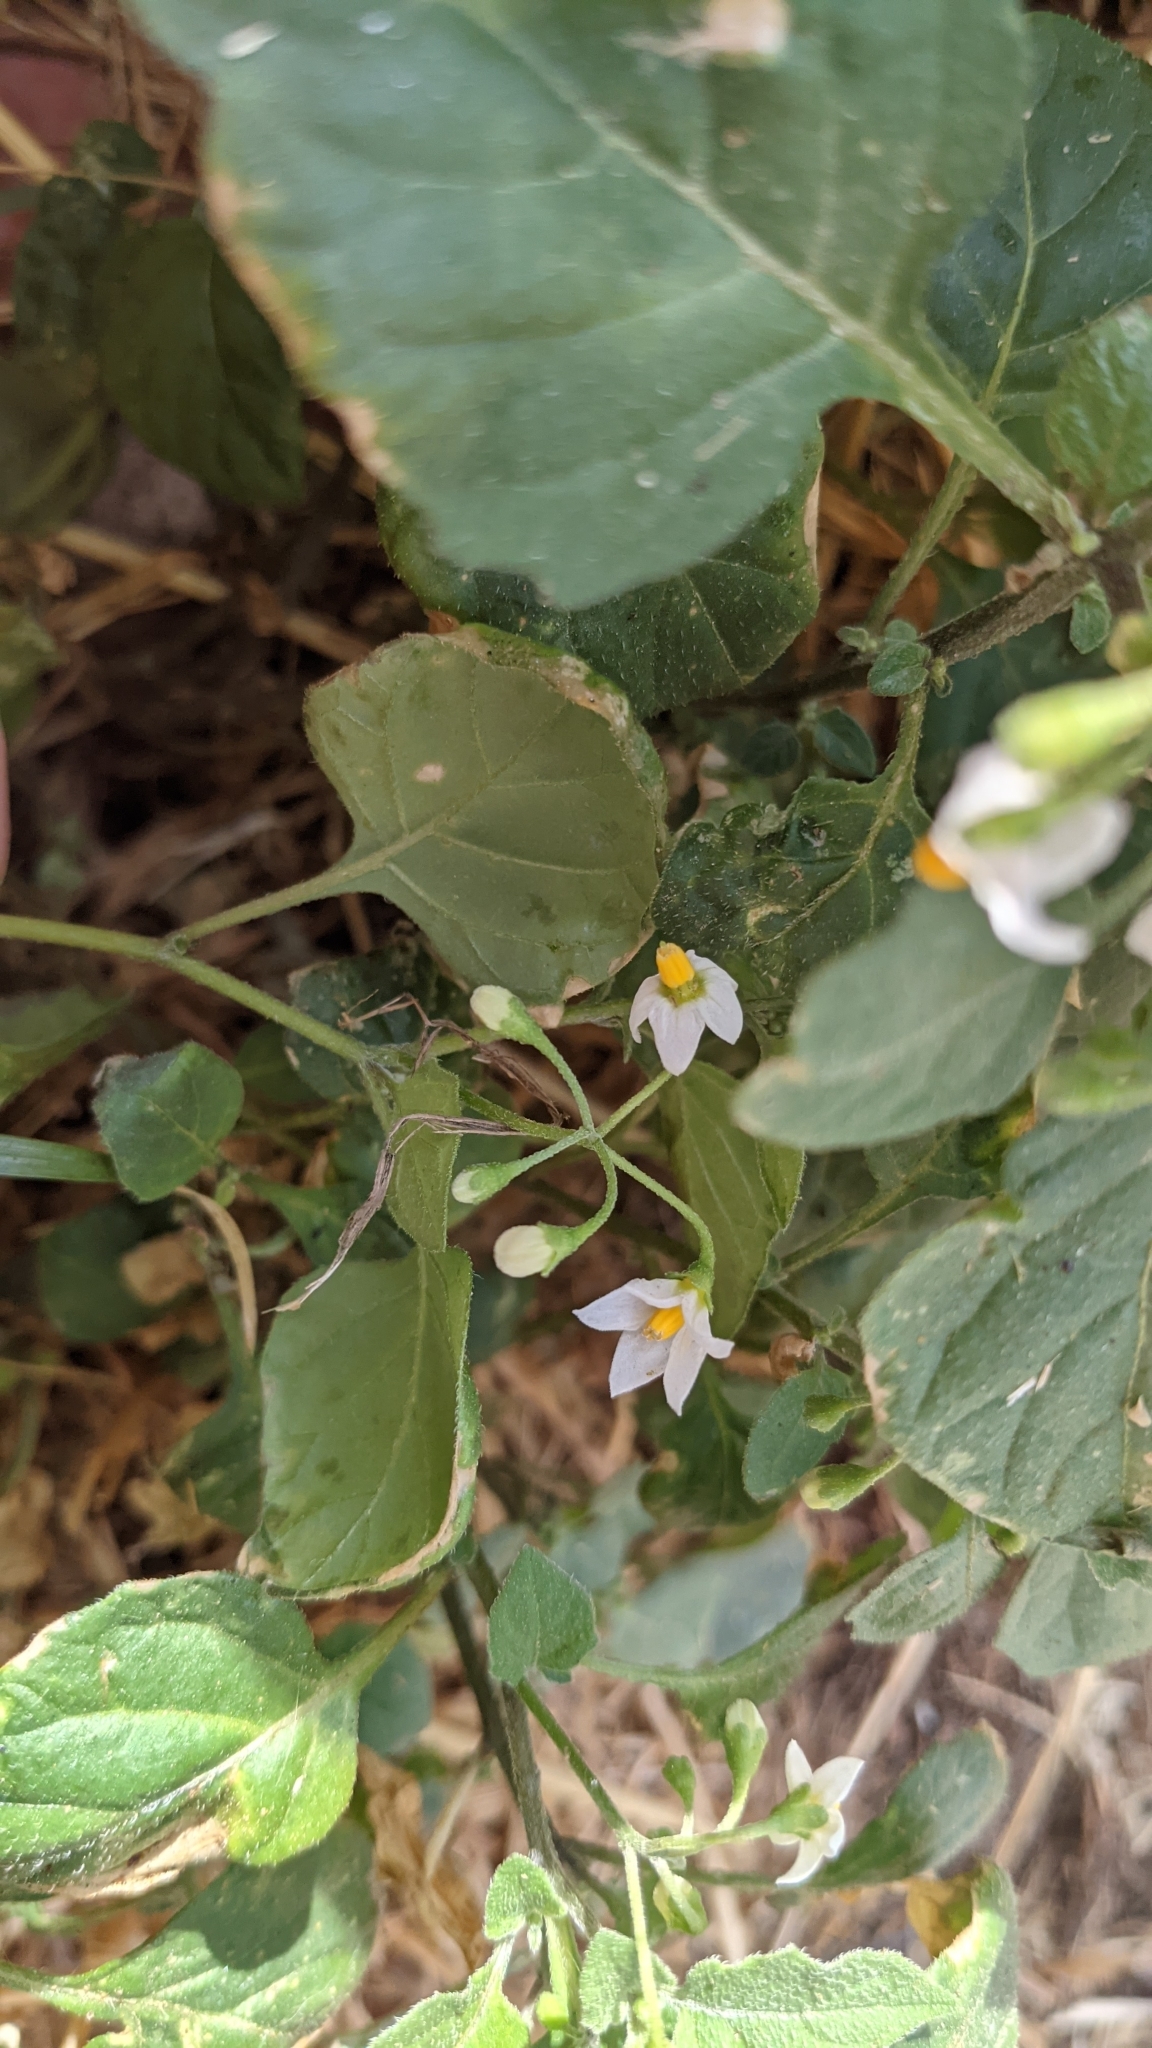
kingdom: Plantae
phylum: Tracheophyta
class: Magnoliopsida
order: Solanales
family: Solanaceae
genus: Solanum
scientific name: Solanum nigrum
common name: Black nightshade
